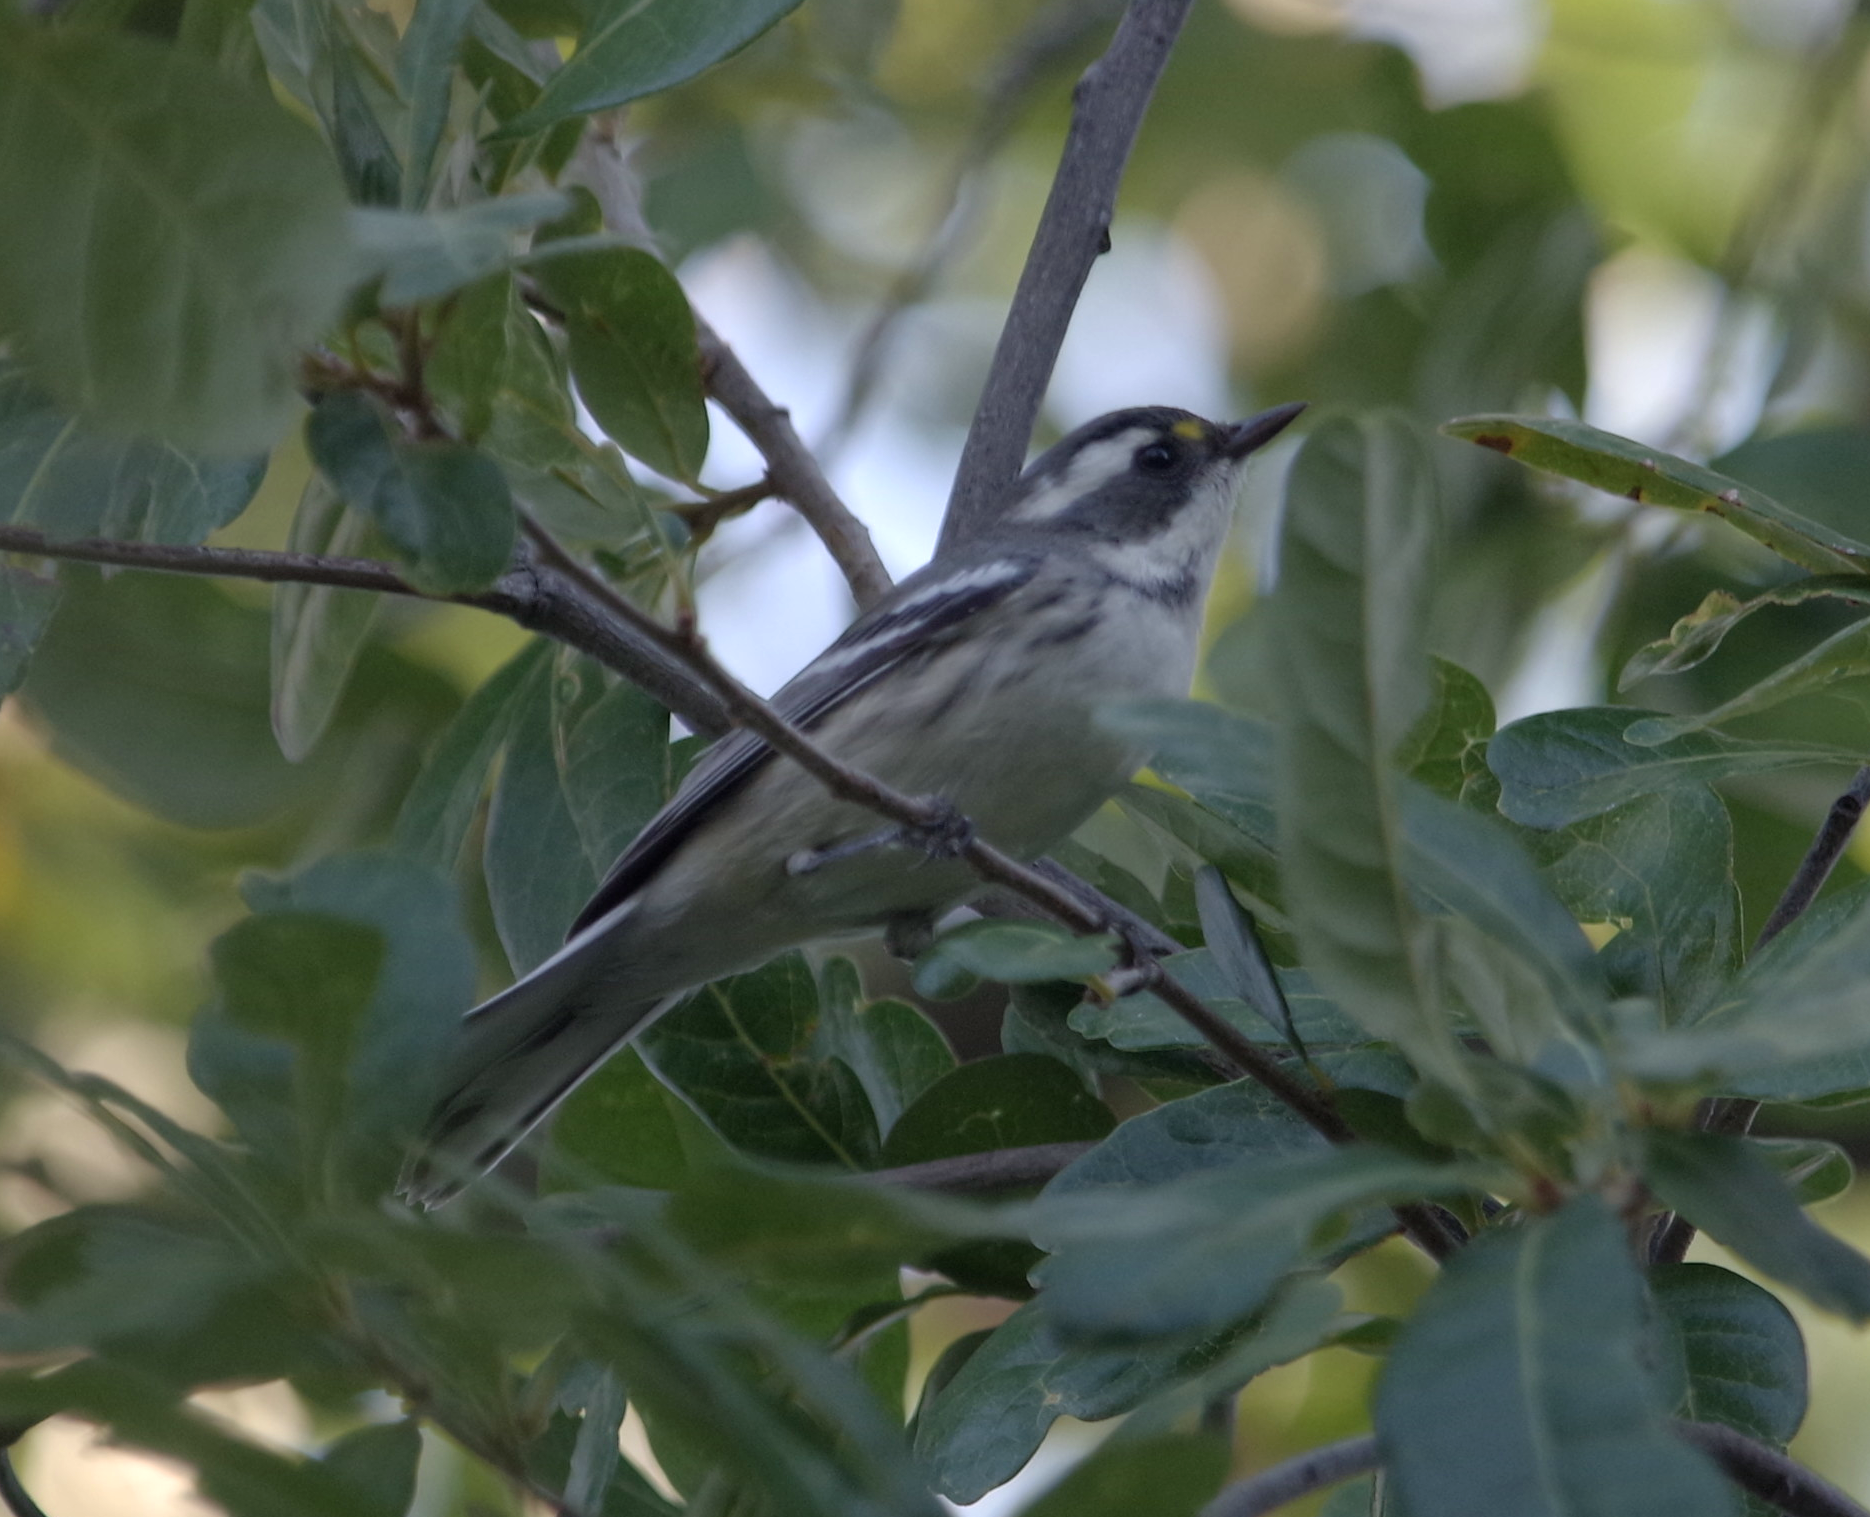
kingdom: Animalia
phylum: Chordata
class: Aves
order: Passeriformes
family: Parulidae
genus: Setophaga
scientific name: Setophaga nigrescens
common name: Black-throated gray warbler
